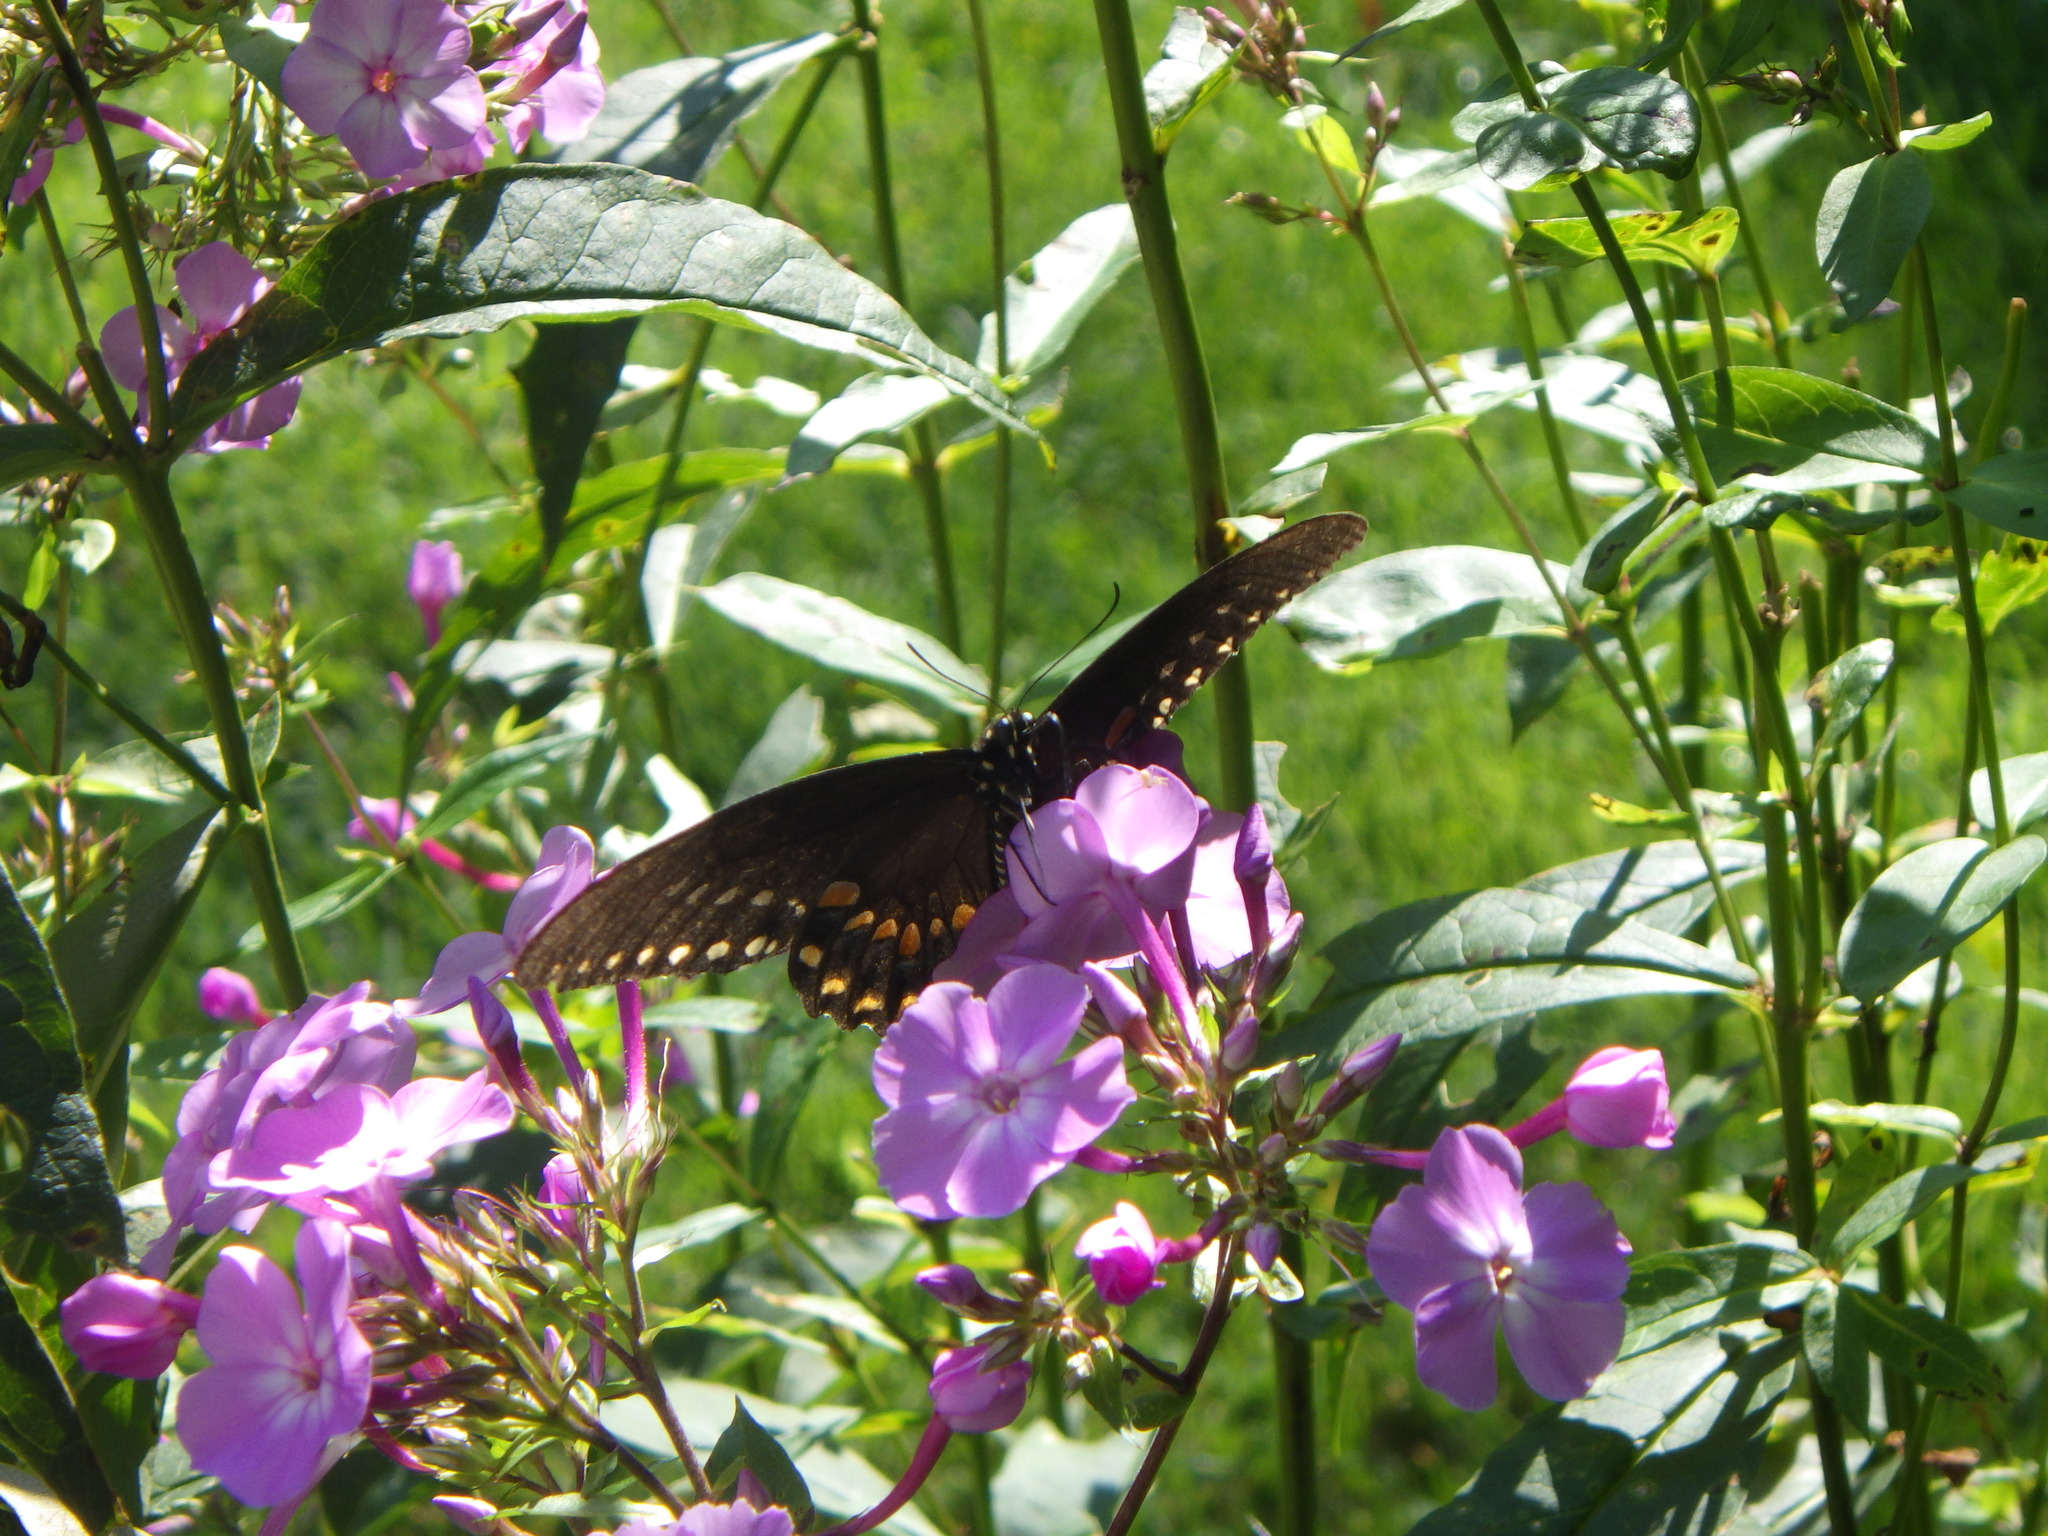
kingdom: Animalia
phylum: Arthropoda
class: Insecta
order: Lepidoptera
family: Papilionidae
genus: Papilio
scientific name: Papilio troilus
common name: Spicebush swallowtail
